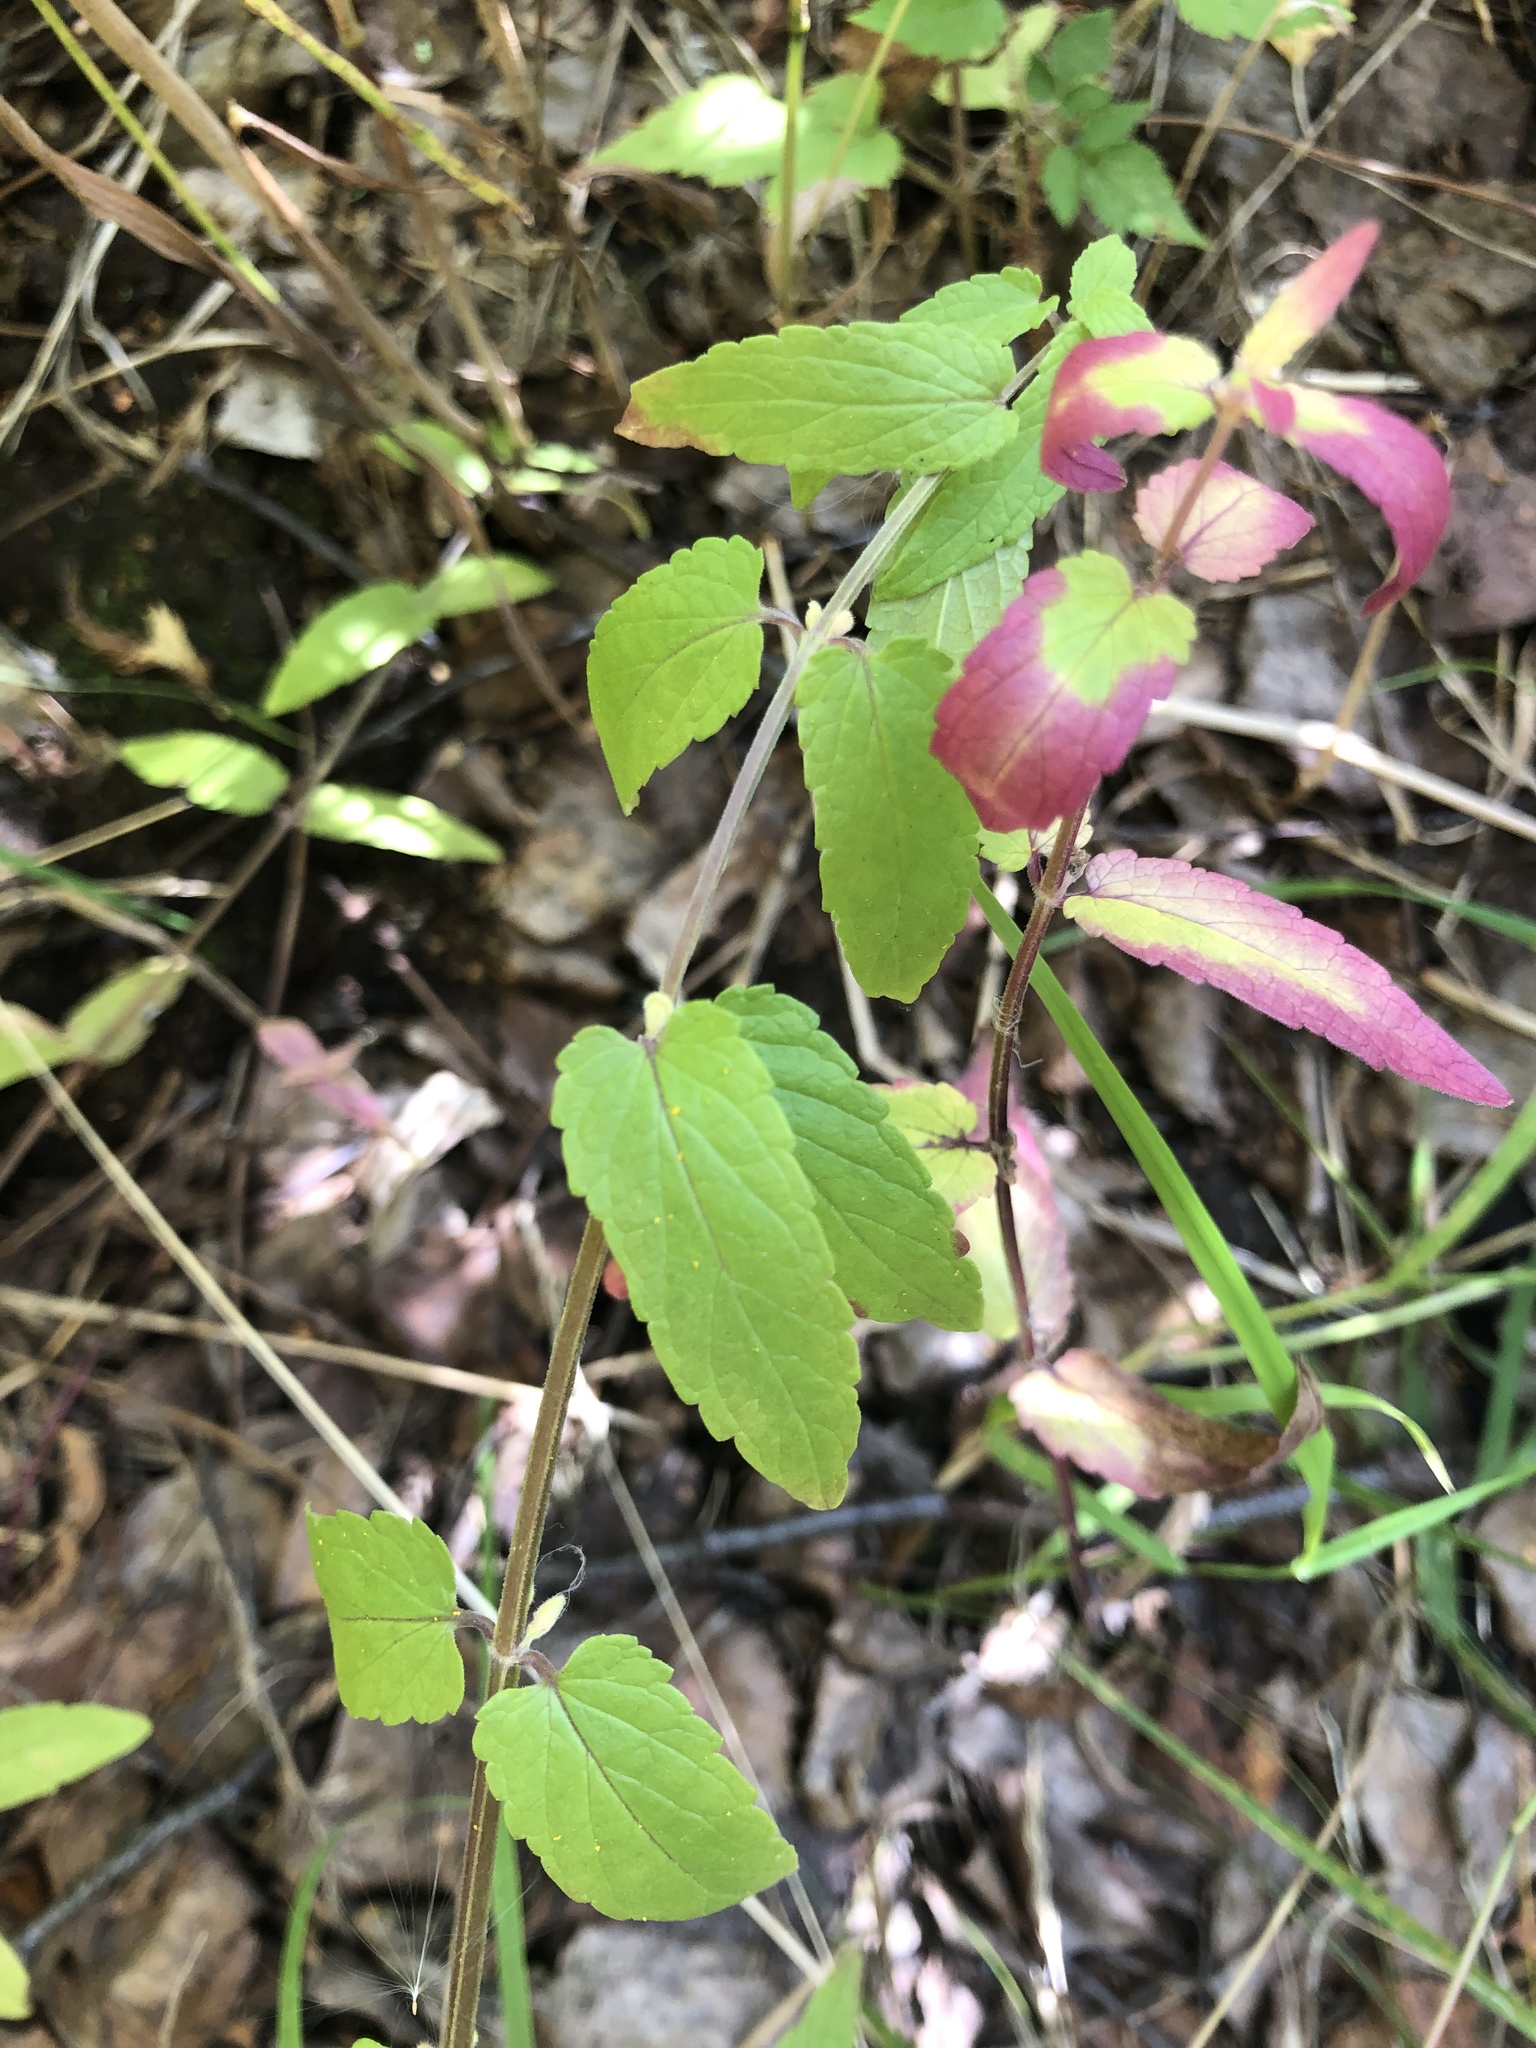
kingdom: Plantae
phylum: Tracheophyta
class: Magnoliopsida
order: Lamiales
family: Lamiaceae
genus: Scutellaria
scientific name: Scutellaria galericulata
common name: Skullcap
